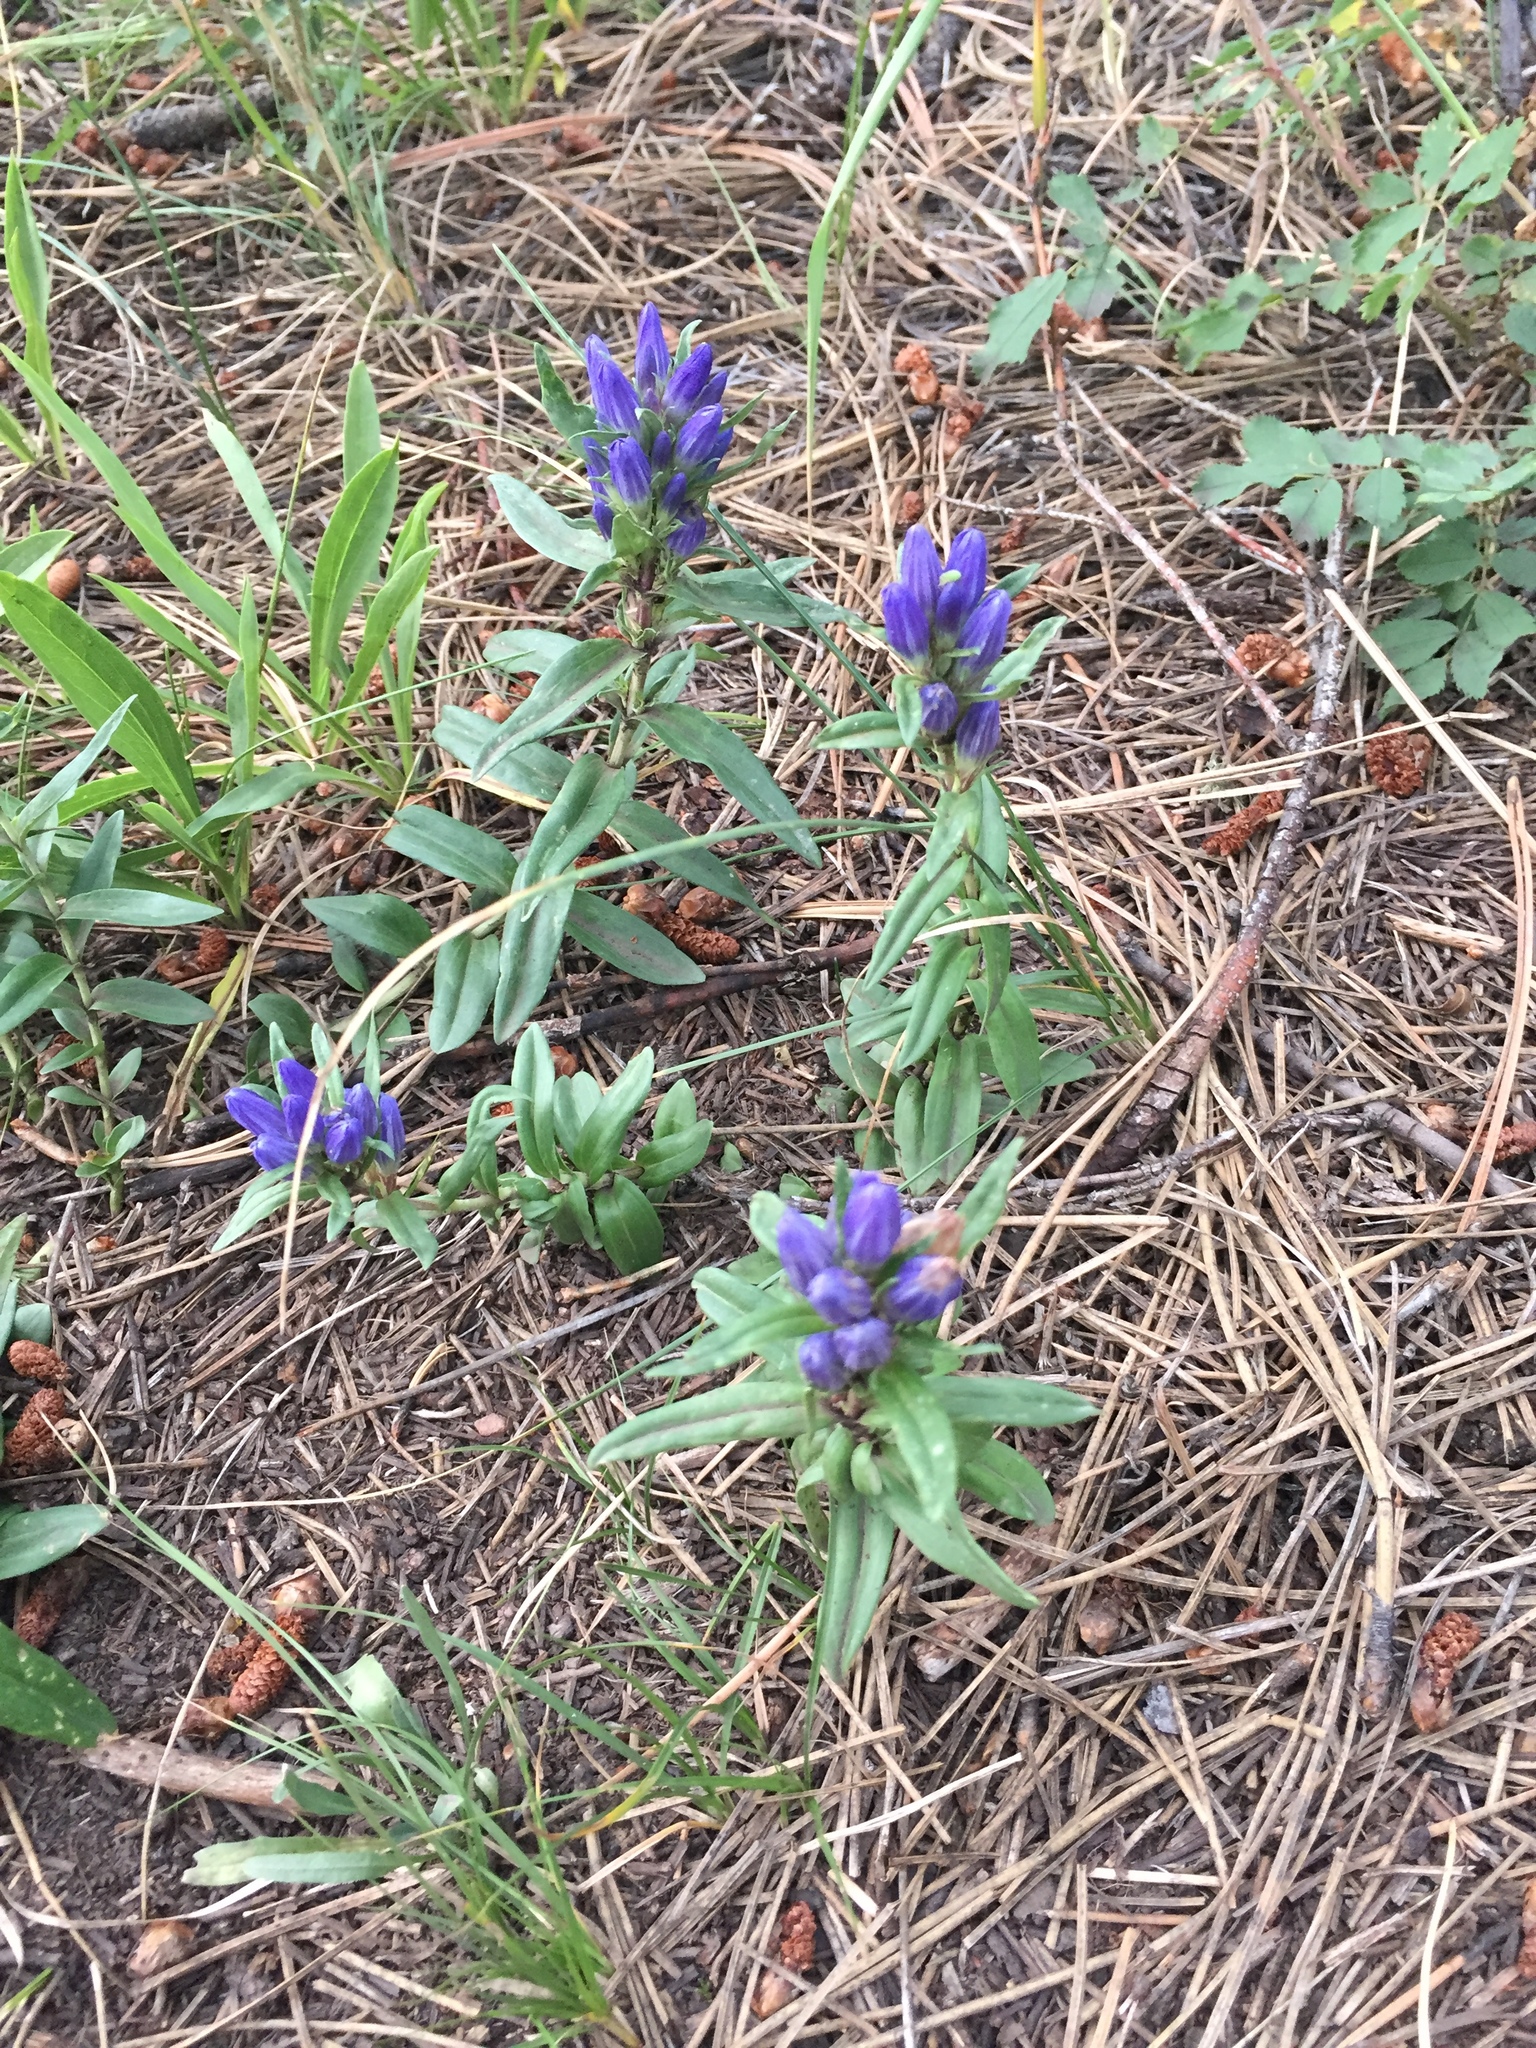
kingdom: Plantae
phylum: Tracheophyta
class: Magnoliopsida
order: Gentianales
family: Gentianaceae
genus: Gentiana
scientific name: Gentiana affinis
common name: Rocky mountain gentian
